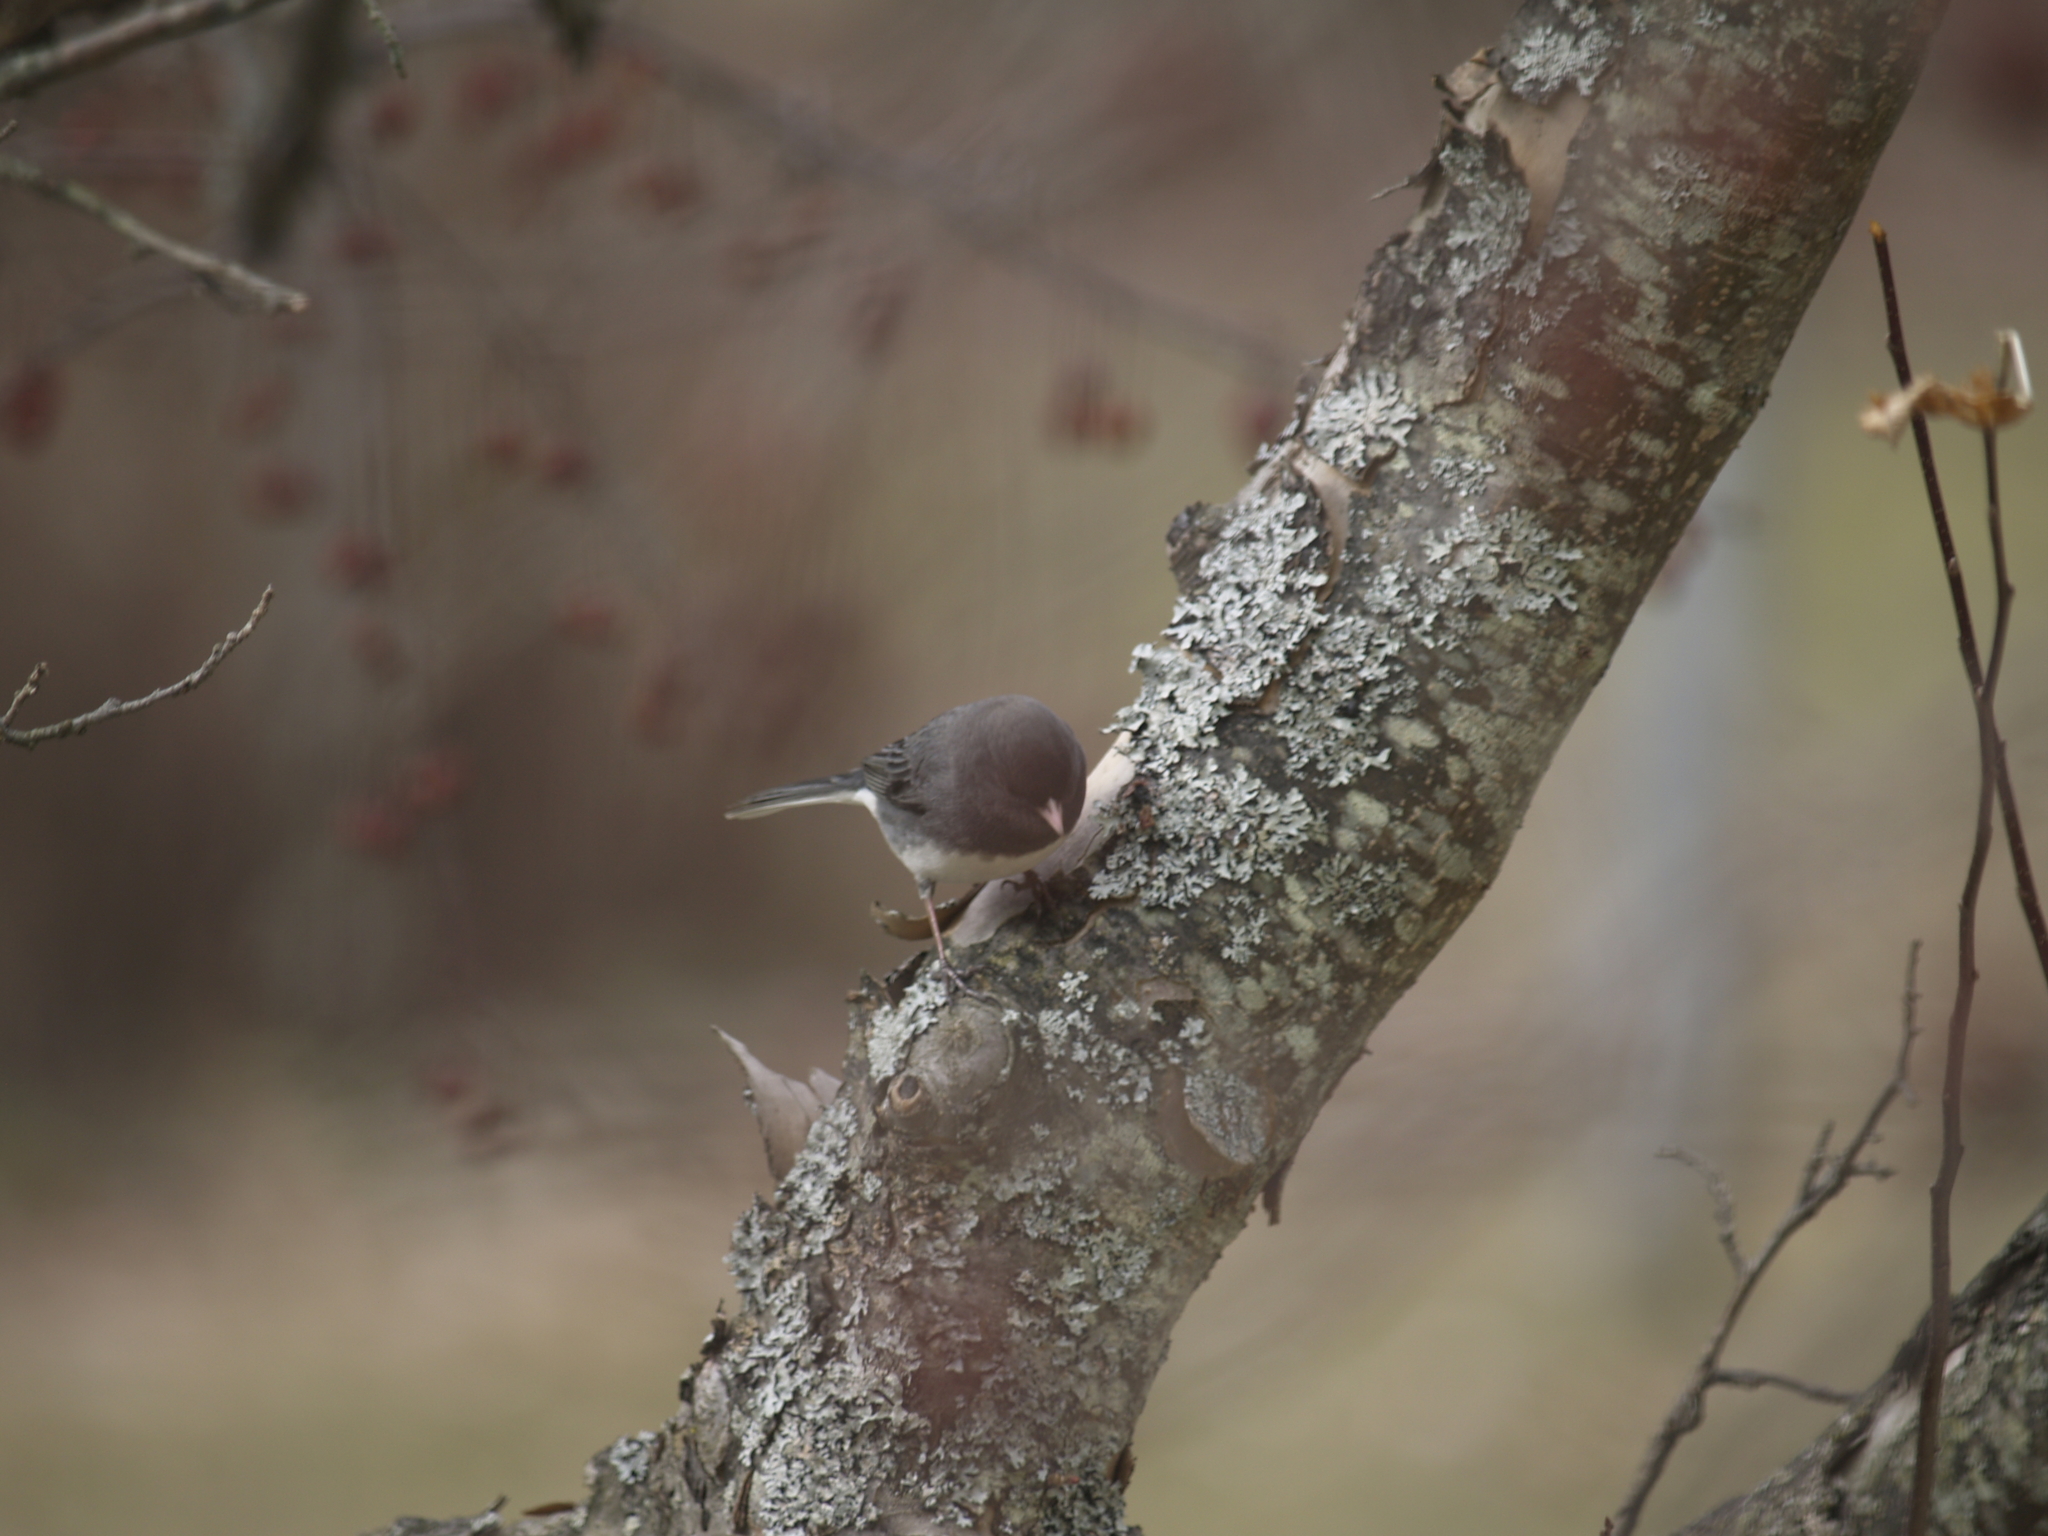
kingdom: Animalia
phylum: Chordata
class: Aves
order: Passeriformes
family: Passerellidae
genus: Junco
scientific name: Junco hyemalis
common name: Dark-eyed junco
